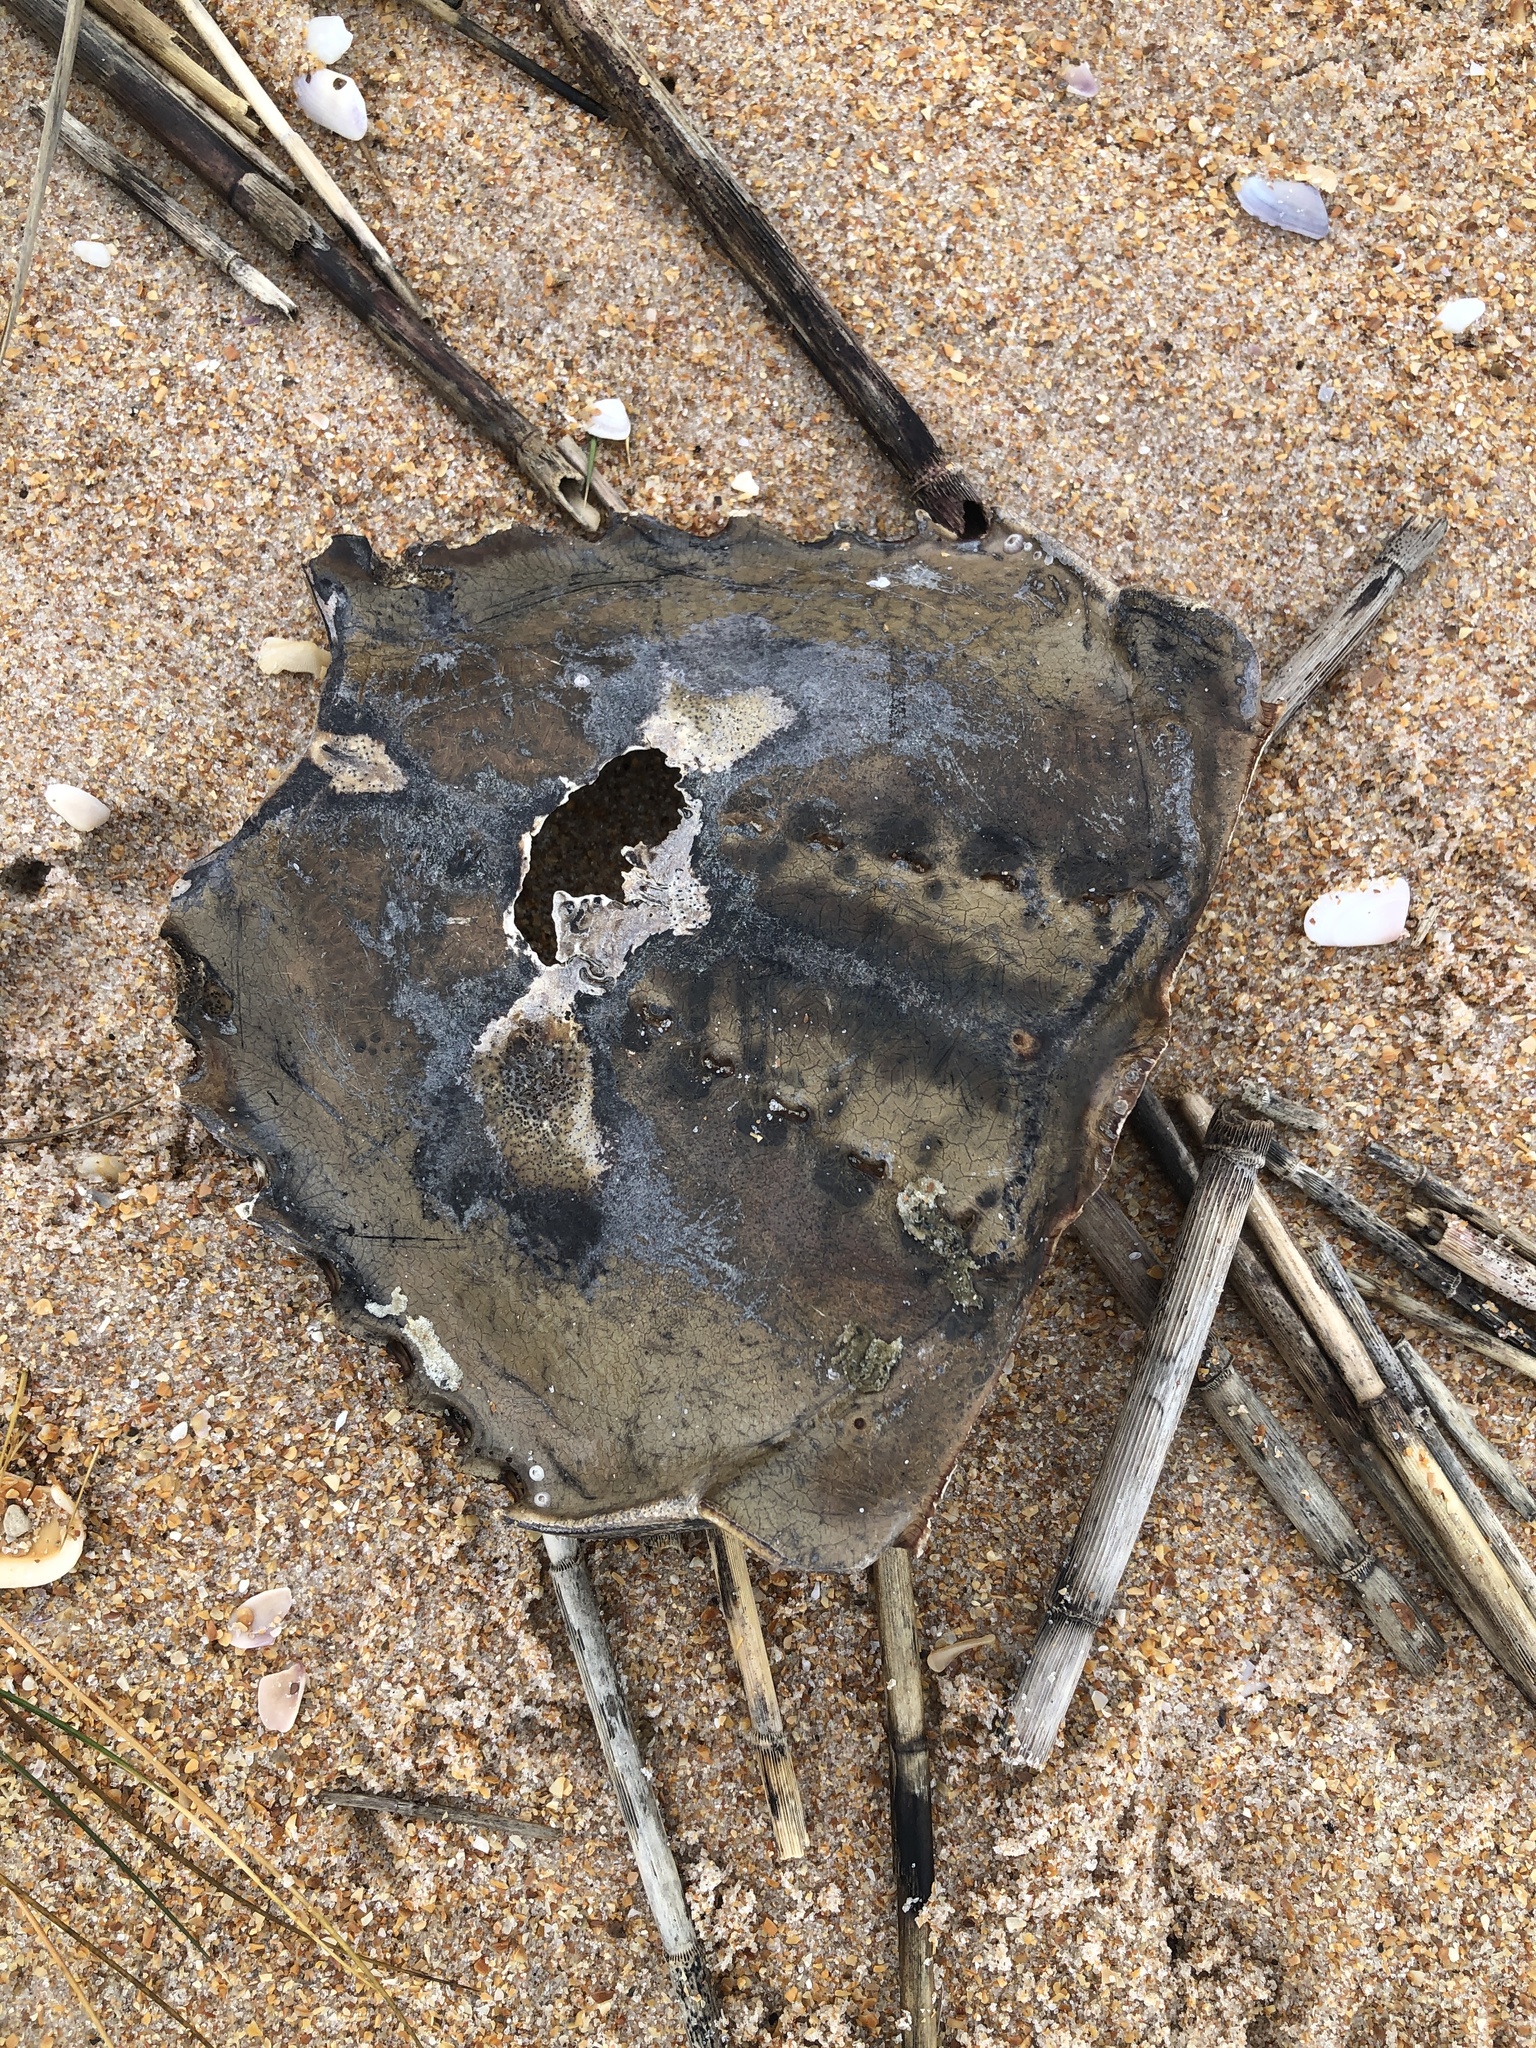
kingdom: Animalia
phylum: Arthropoda
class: Merostomata
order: Xiphosurida
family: Limulidae
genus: Limulus
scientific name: Limulus polyphemus
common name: Horseshoe crab
